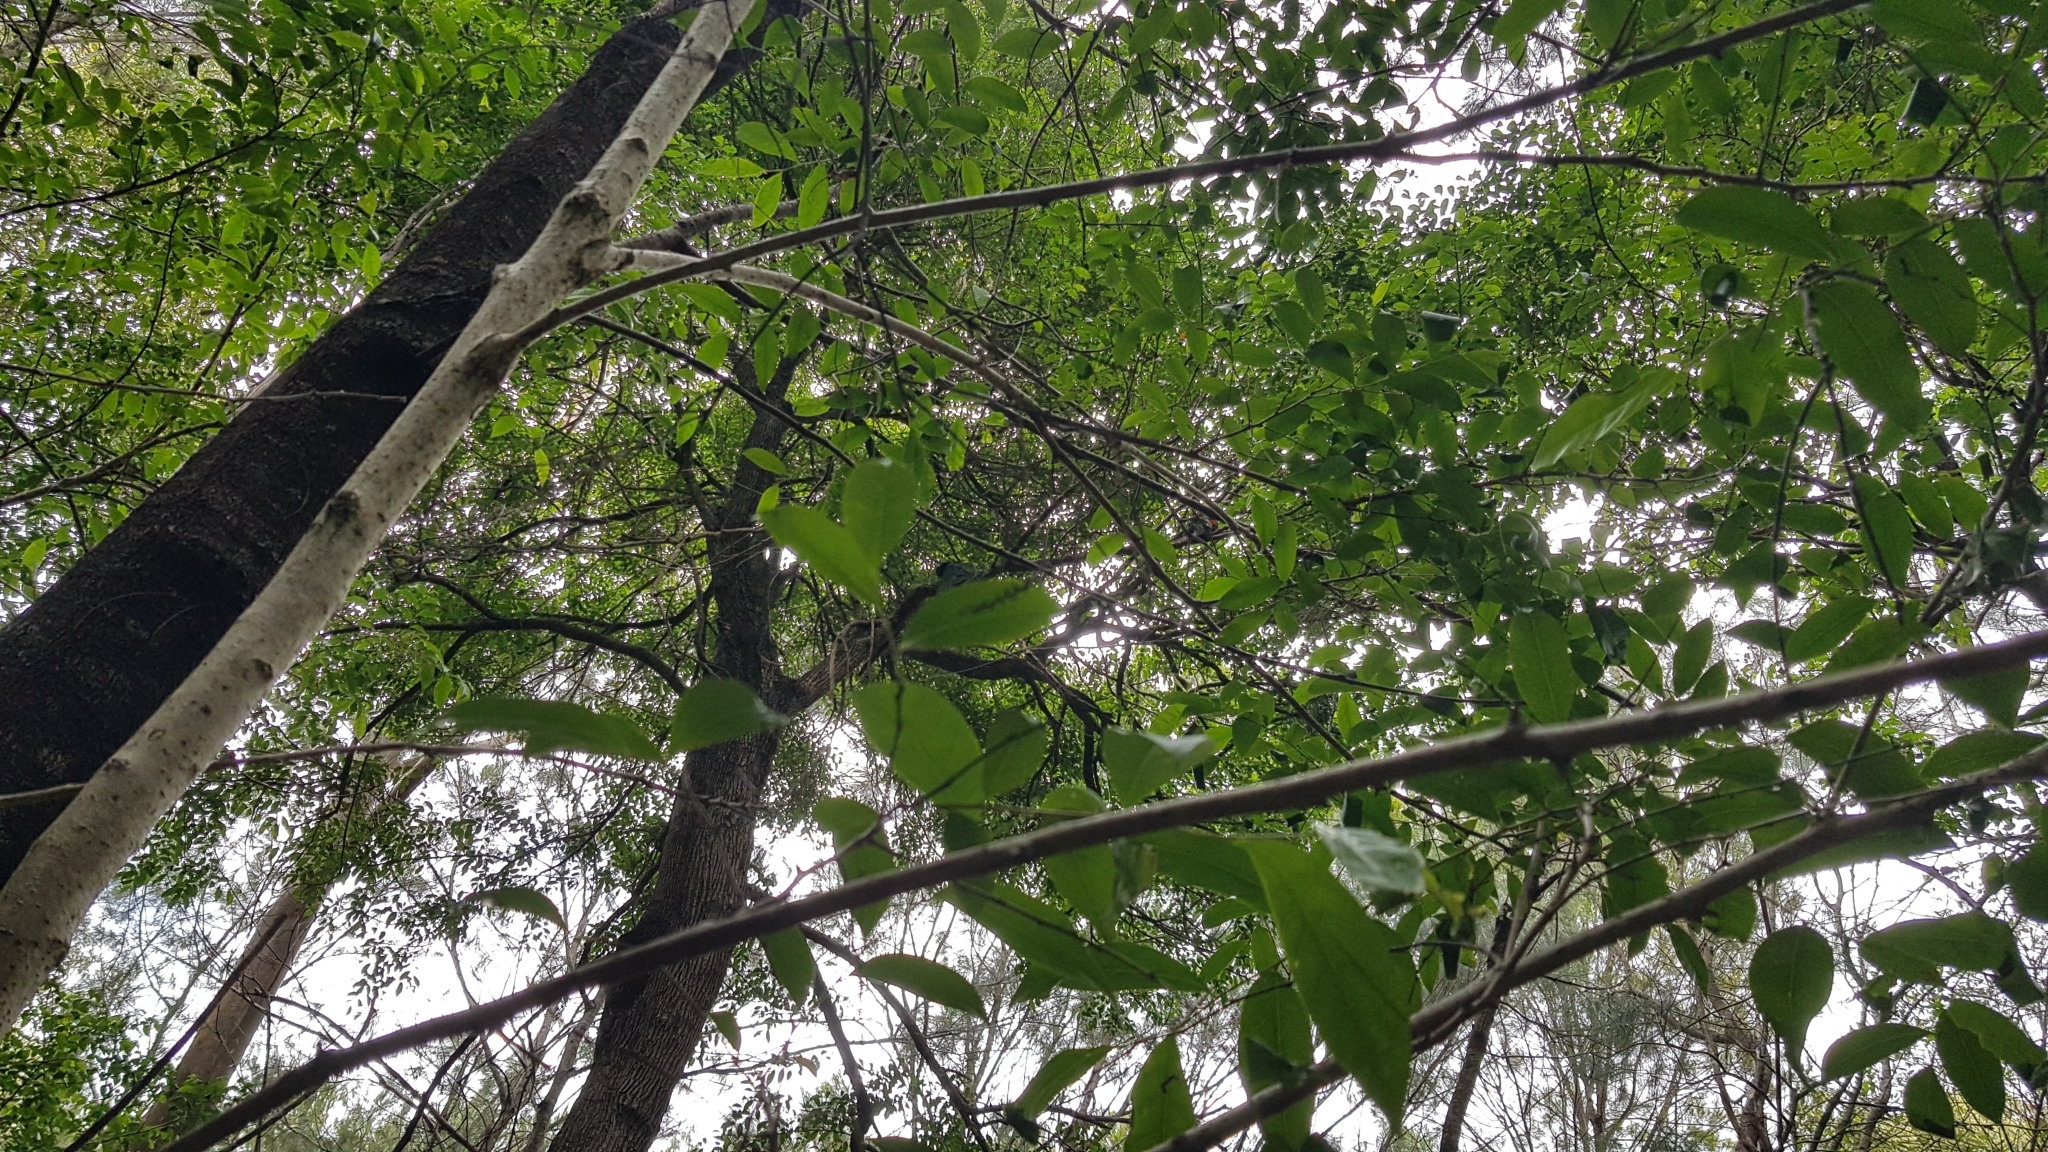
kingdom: Animalia
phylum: Chordata
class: Aves
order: Psittaciformes
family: Psittacidae
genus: Alisterus
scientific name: Alisterus scapularis
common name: Australian king parrot
